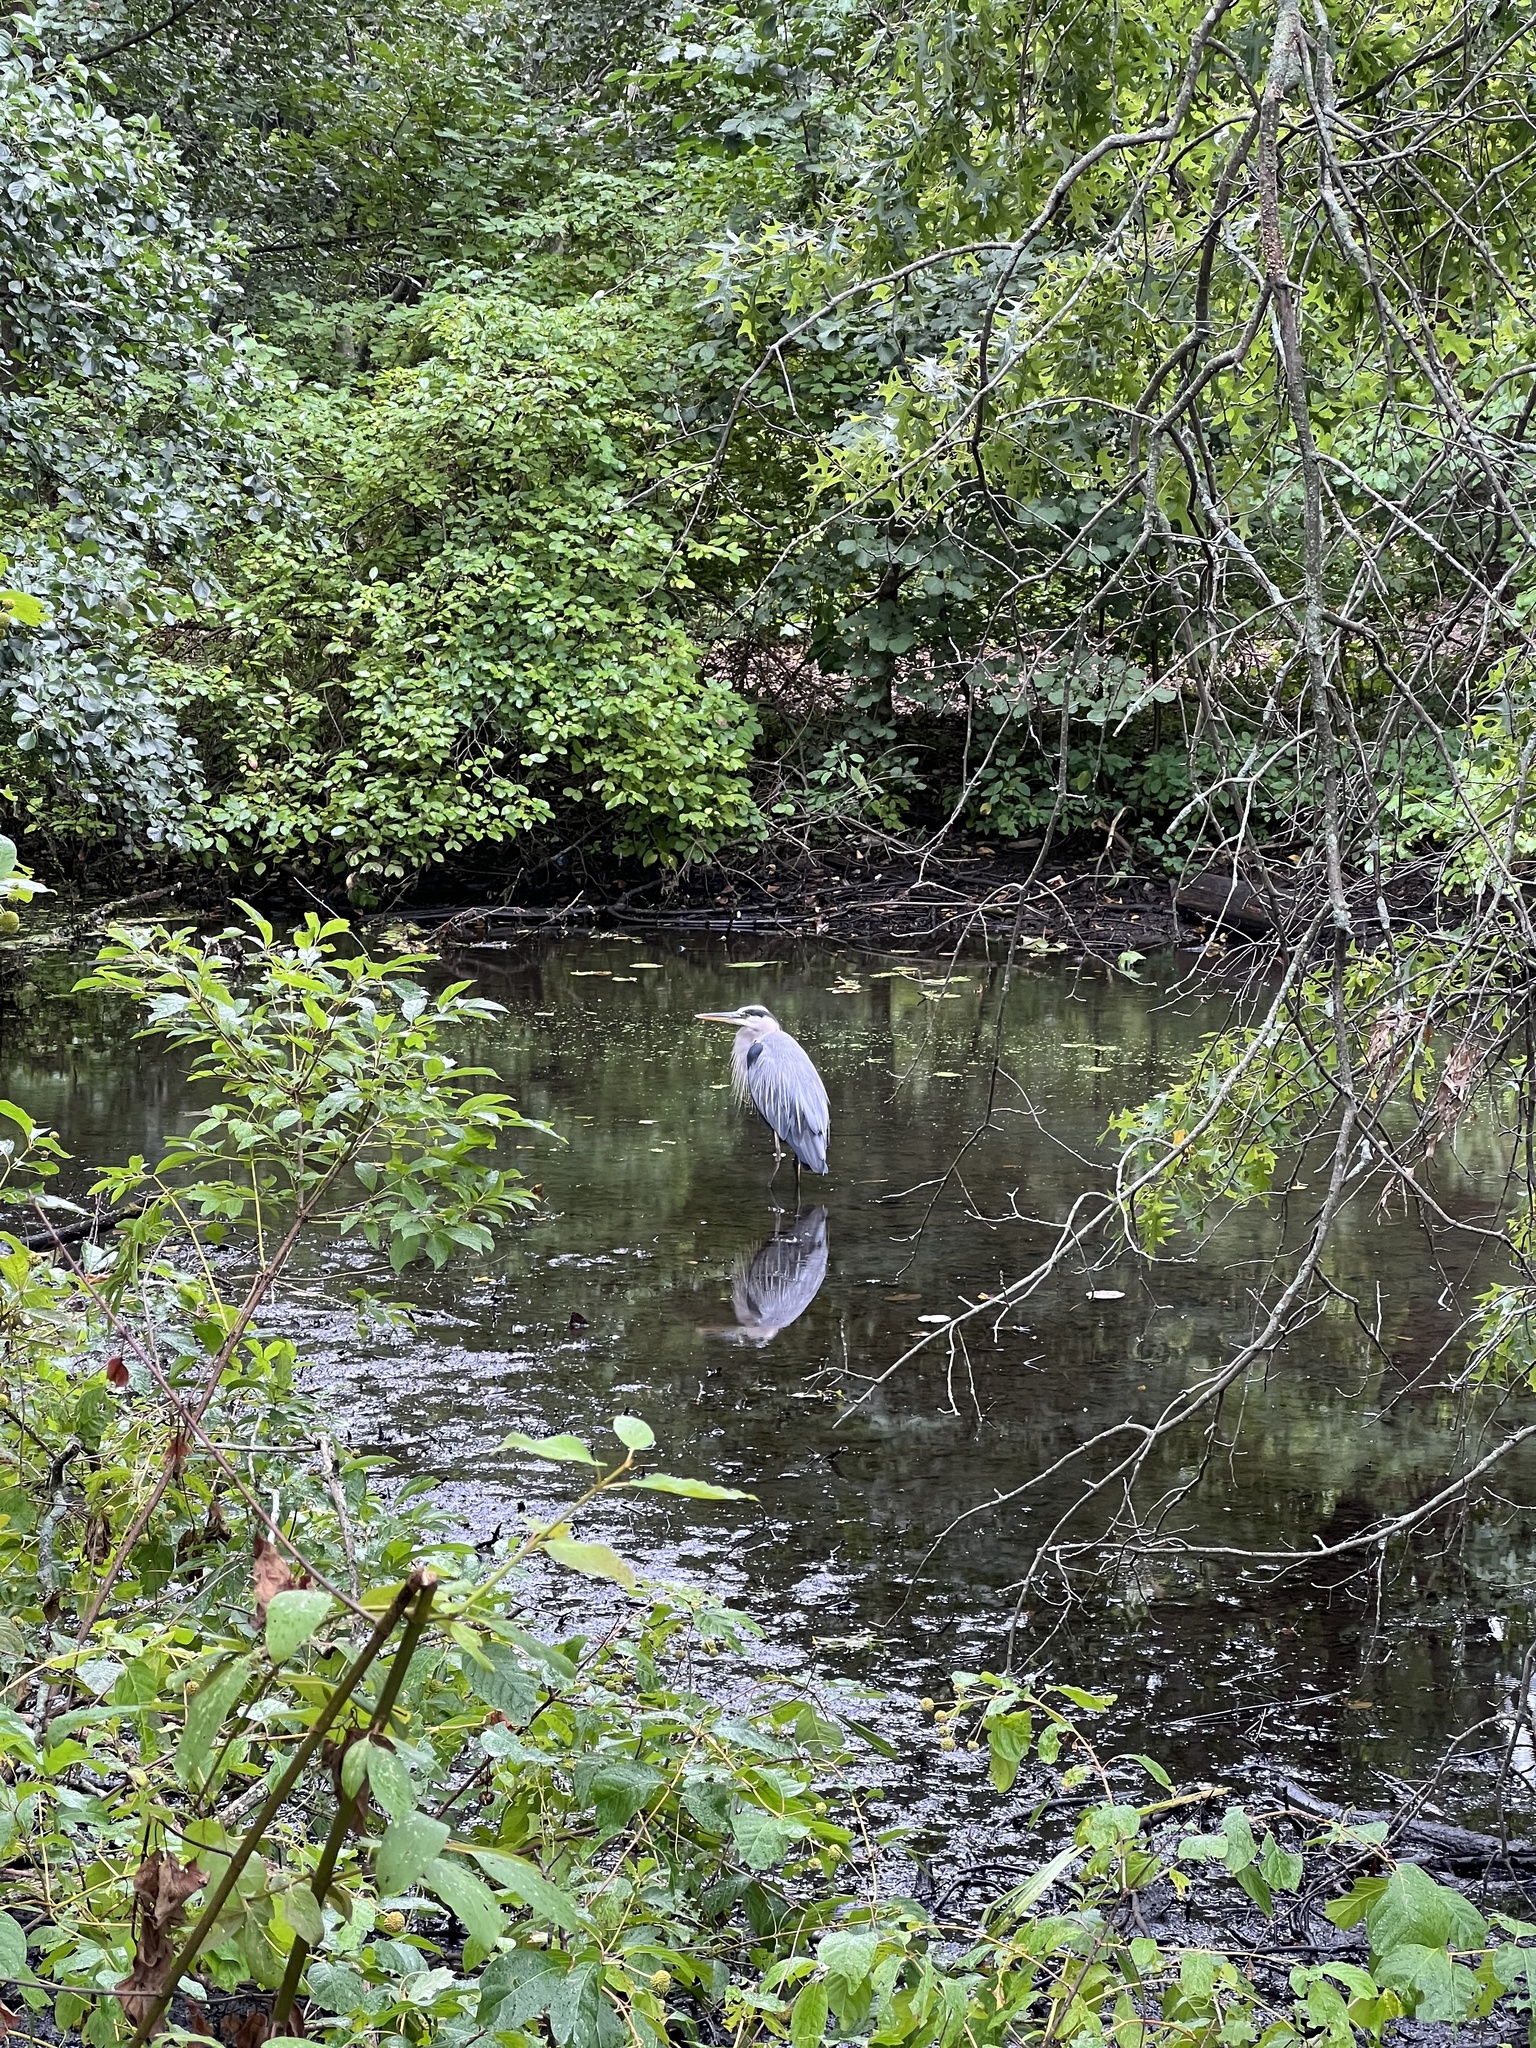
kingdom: Animalia
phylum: Chordata
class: Aves
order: Pelecaniformes
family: Ardeidae
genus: Ardea
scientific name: Ardea herodias
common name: Great blue heron
